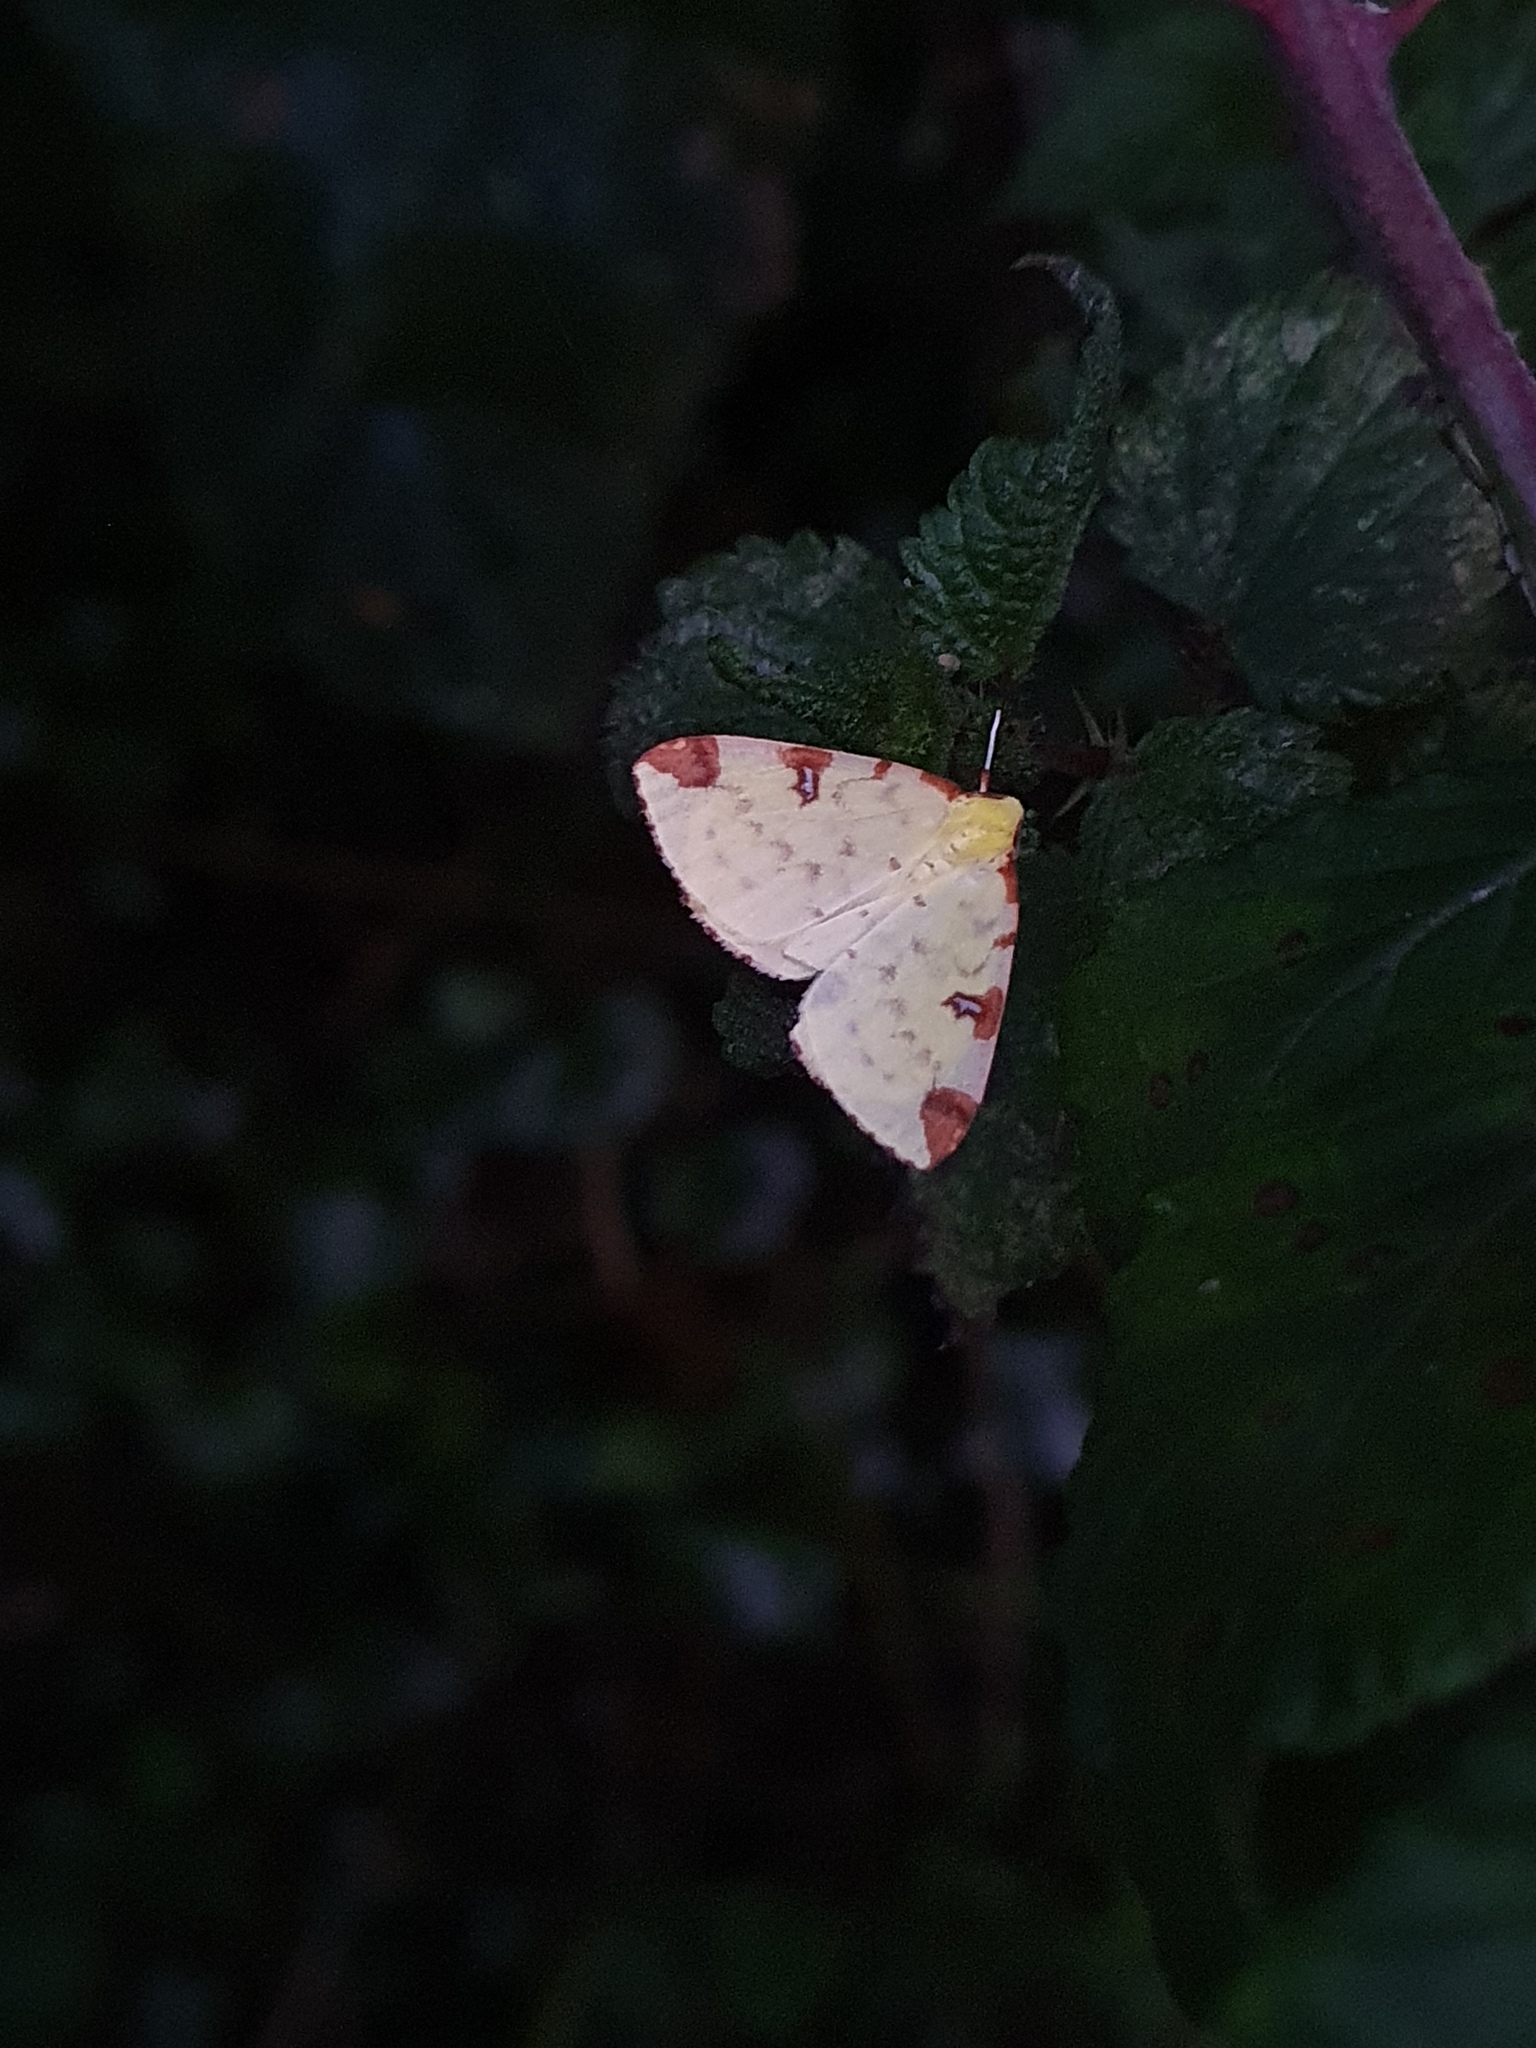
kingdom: Animalia
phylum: Arthropoda
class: Insecta
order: Lepidoptera
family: Geometridae
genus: Opisthograptis
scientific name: Opisthograptis luteolata
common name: Brimstone moth
